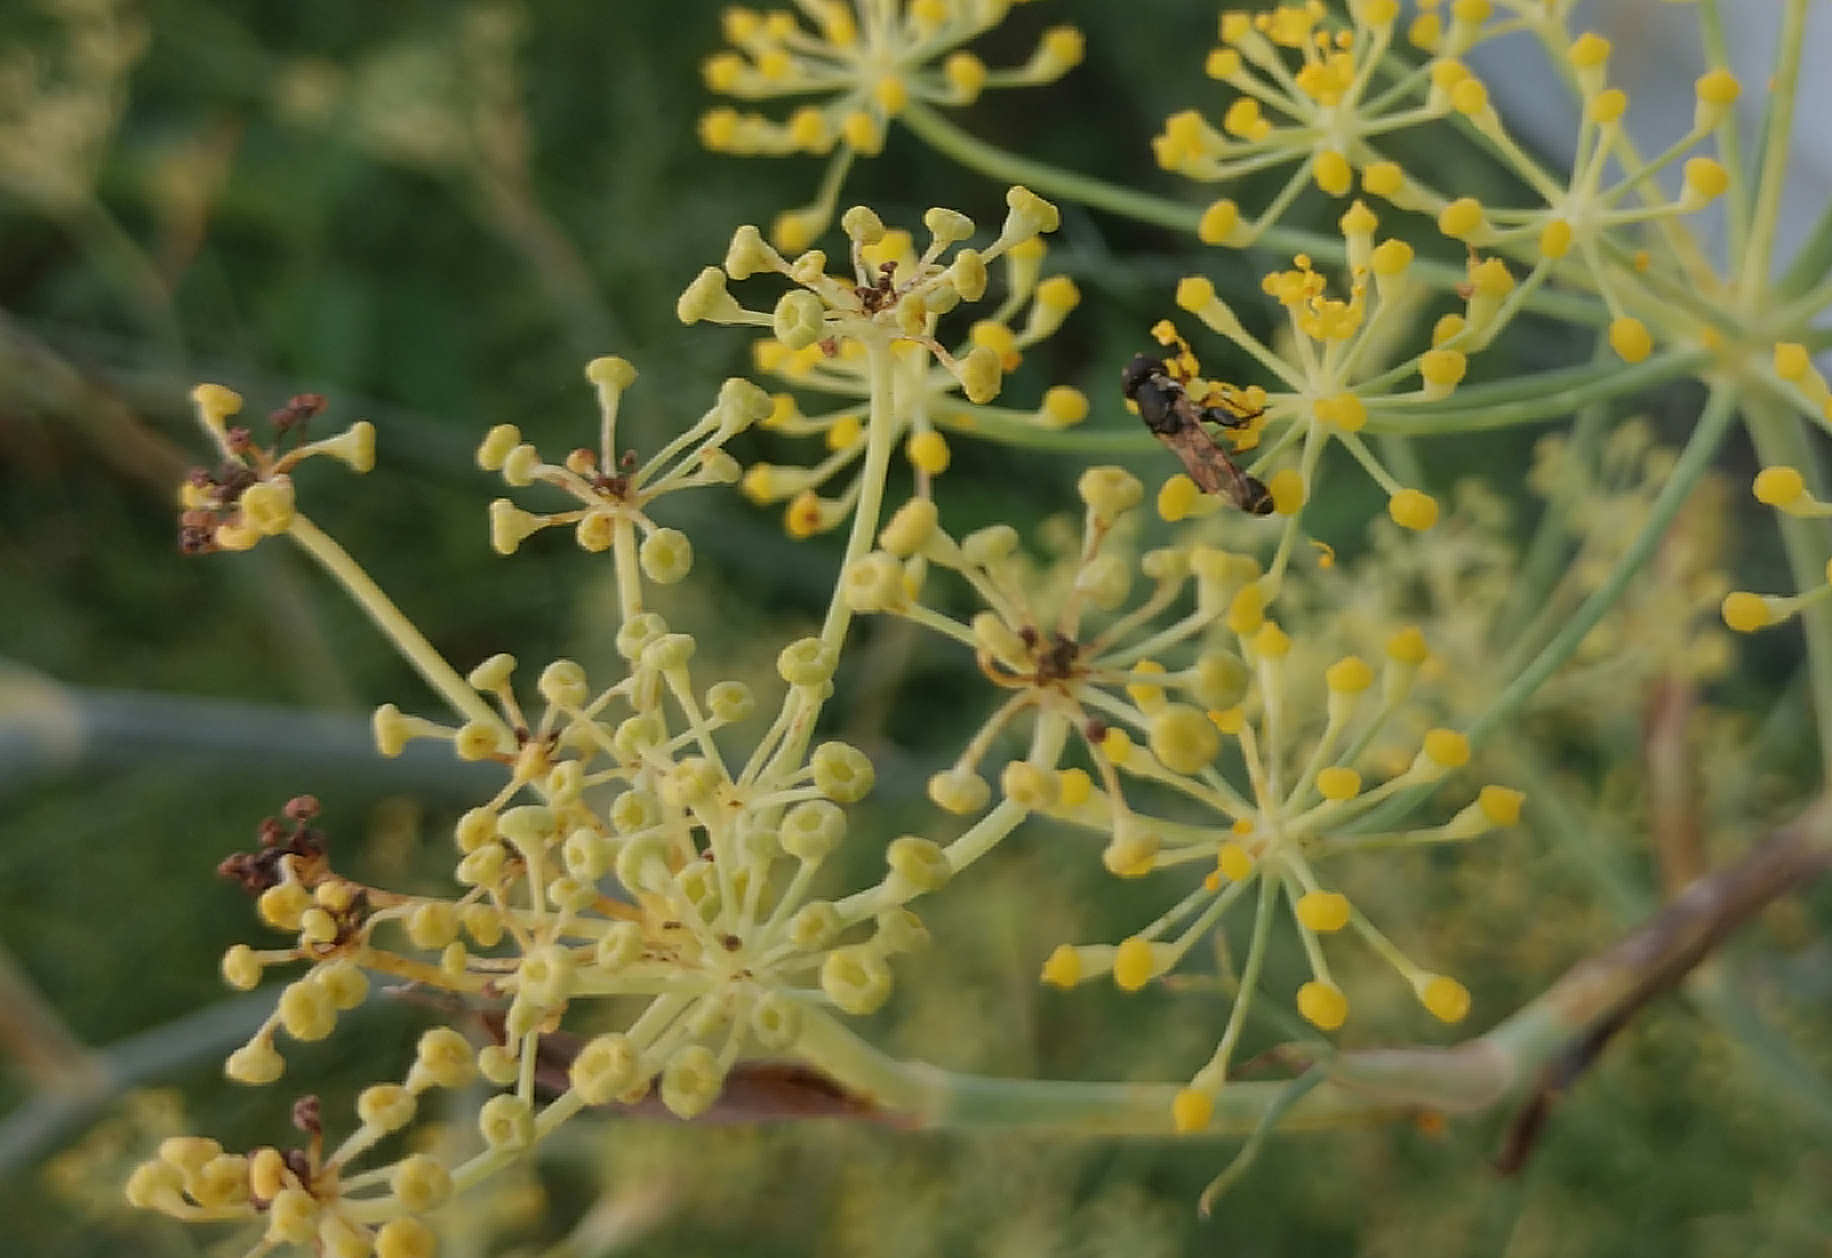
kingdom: Animalia
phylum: Arthropoda
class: Insecta
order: Diptera
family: Syrphidae
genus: Syritta
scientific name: Syritta pipiens
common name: Hover fly
